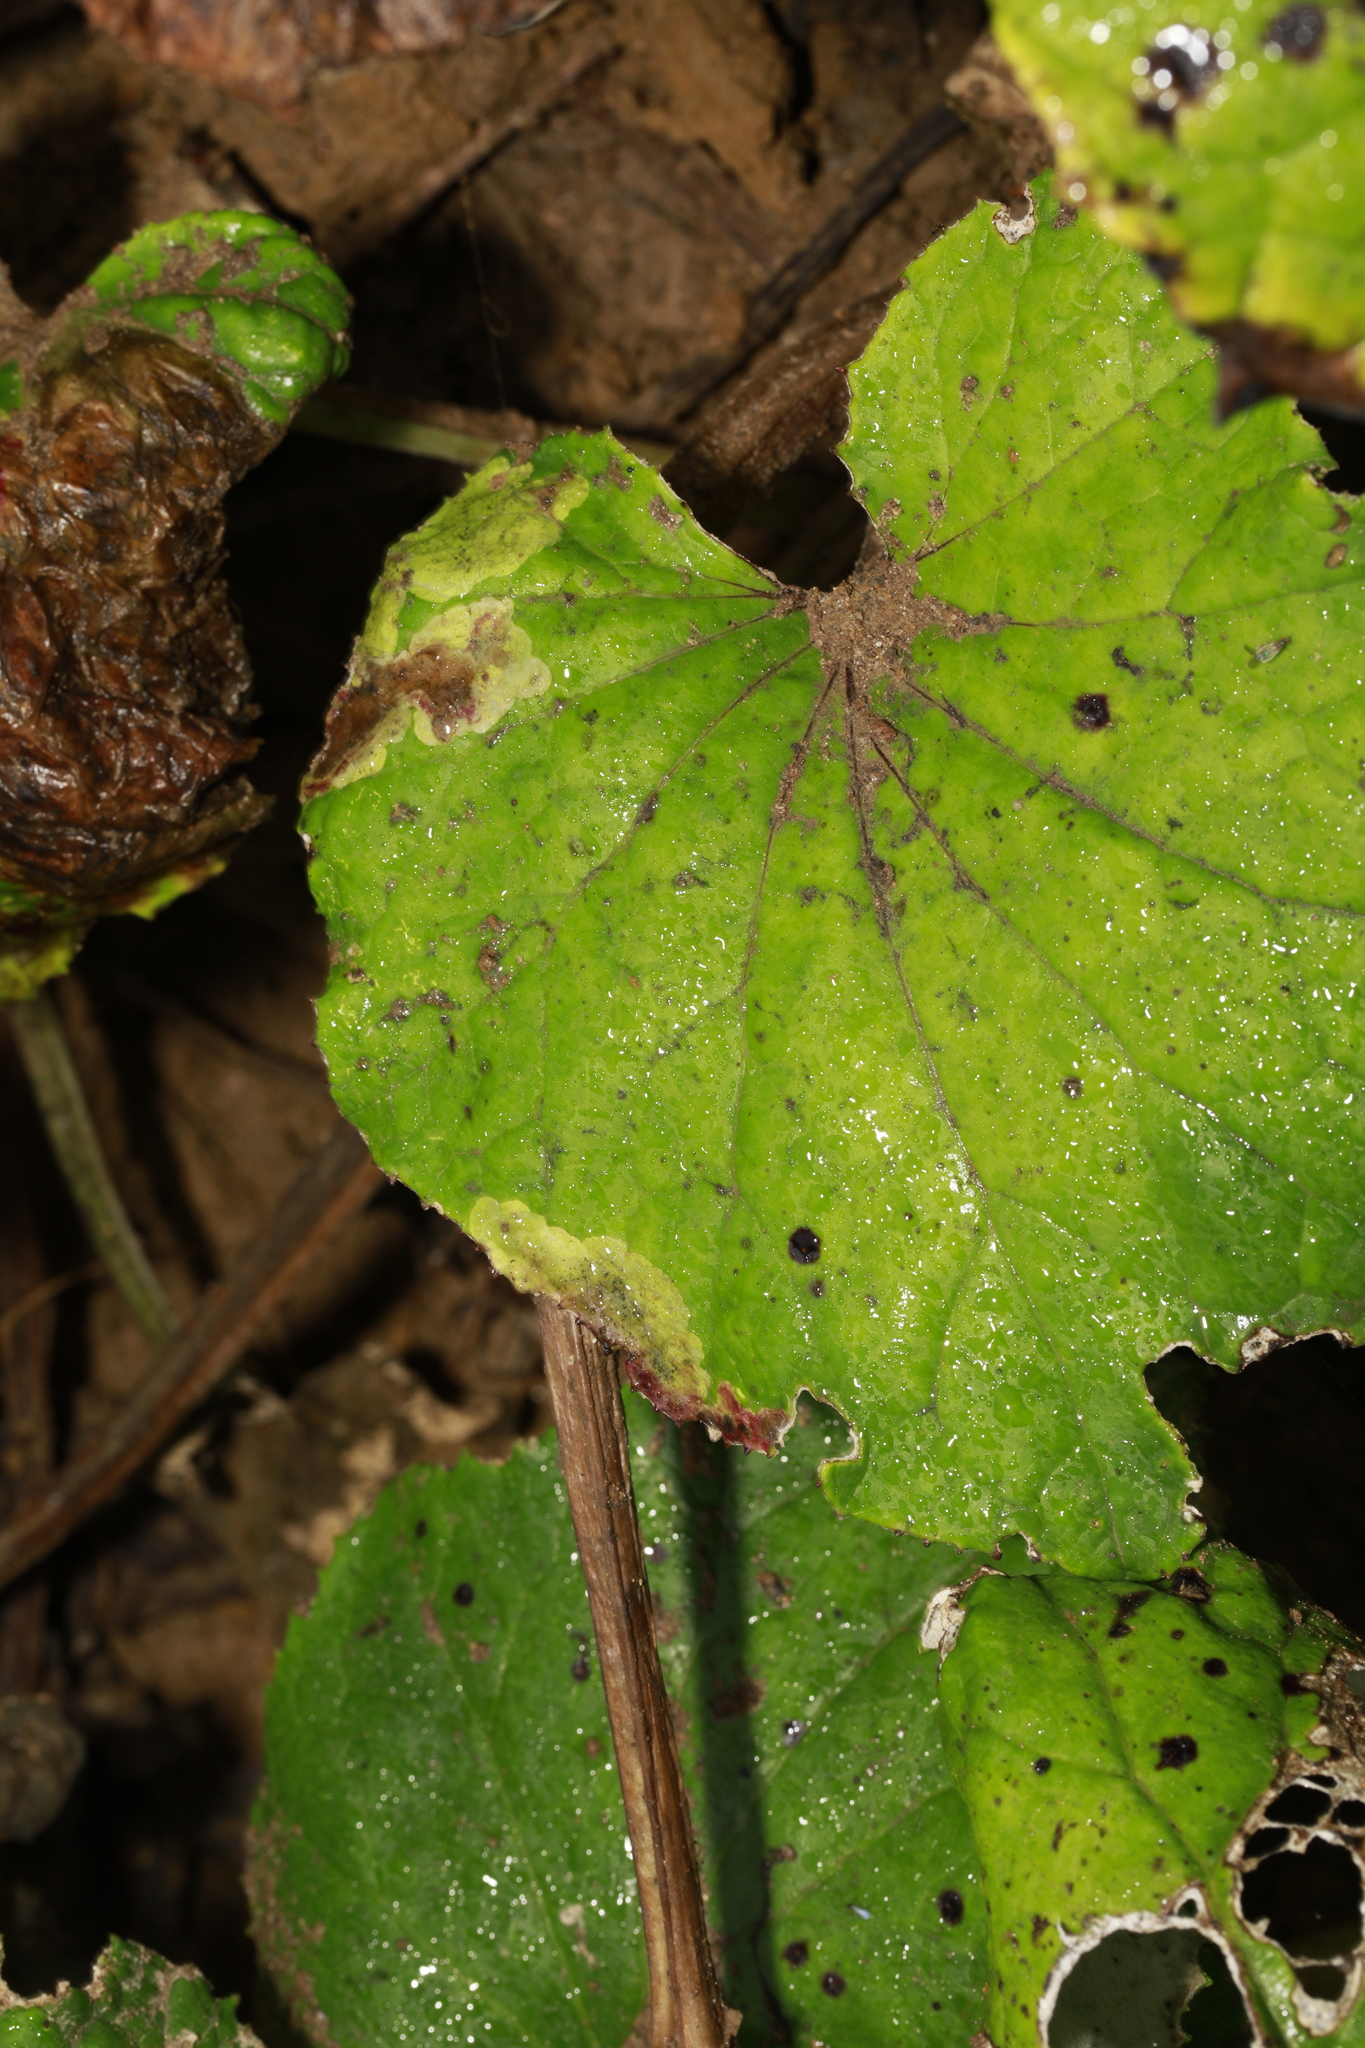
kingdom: Plantae
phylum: Tracheophyta
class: Magnoliopsida
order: Asterales
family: Asteraceae
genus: Tussilago
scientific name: Tussilago farfara
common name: Coltsfoot
